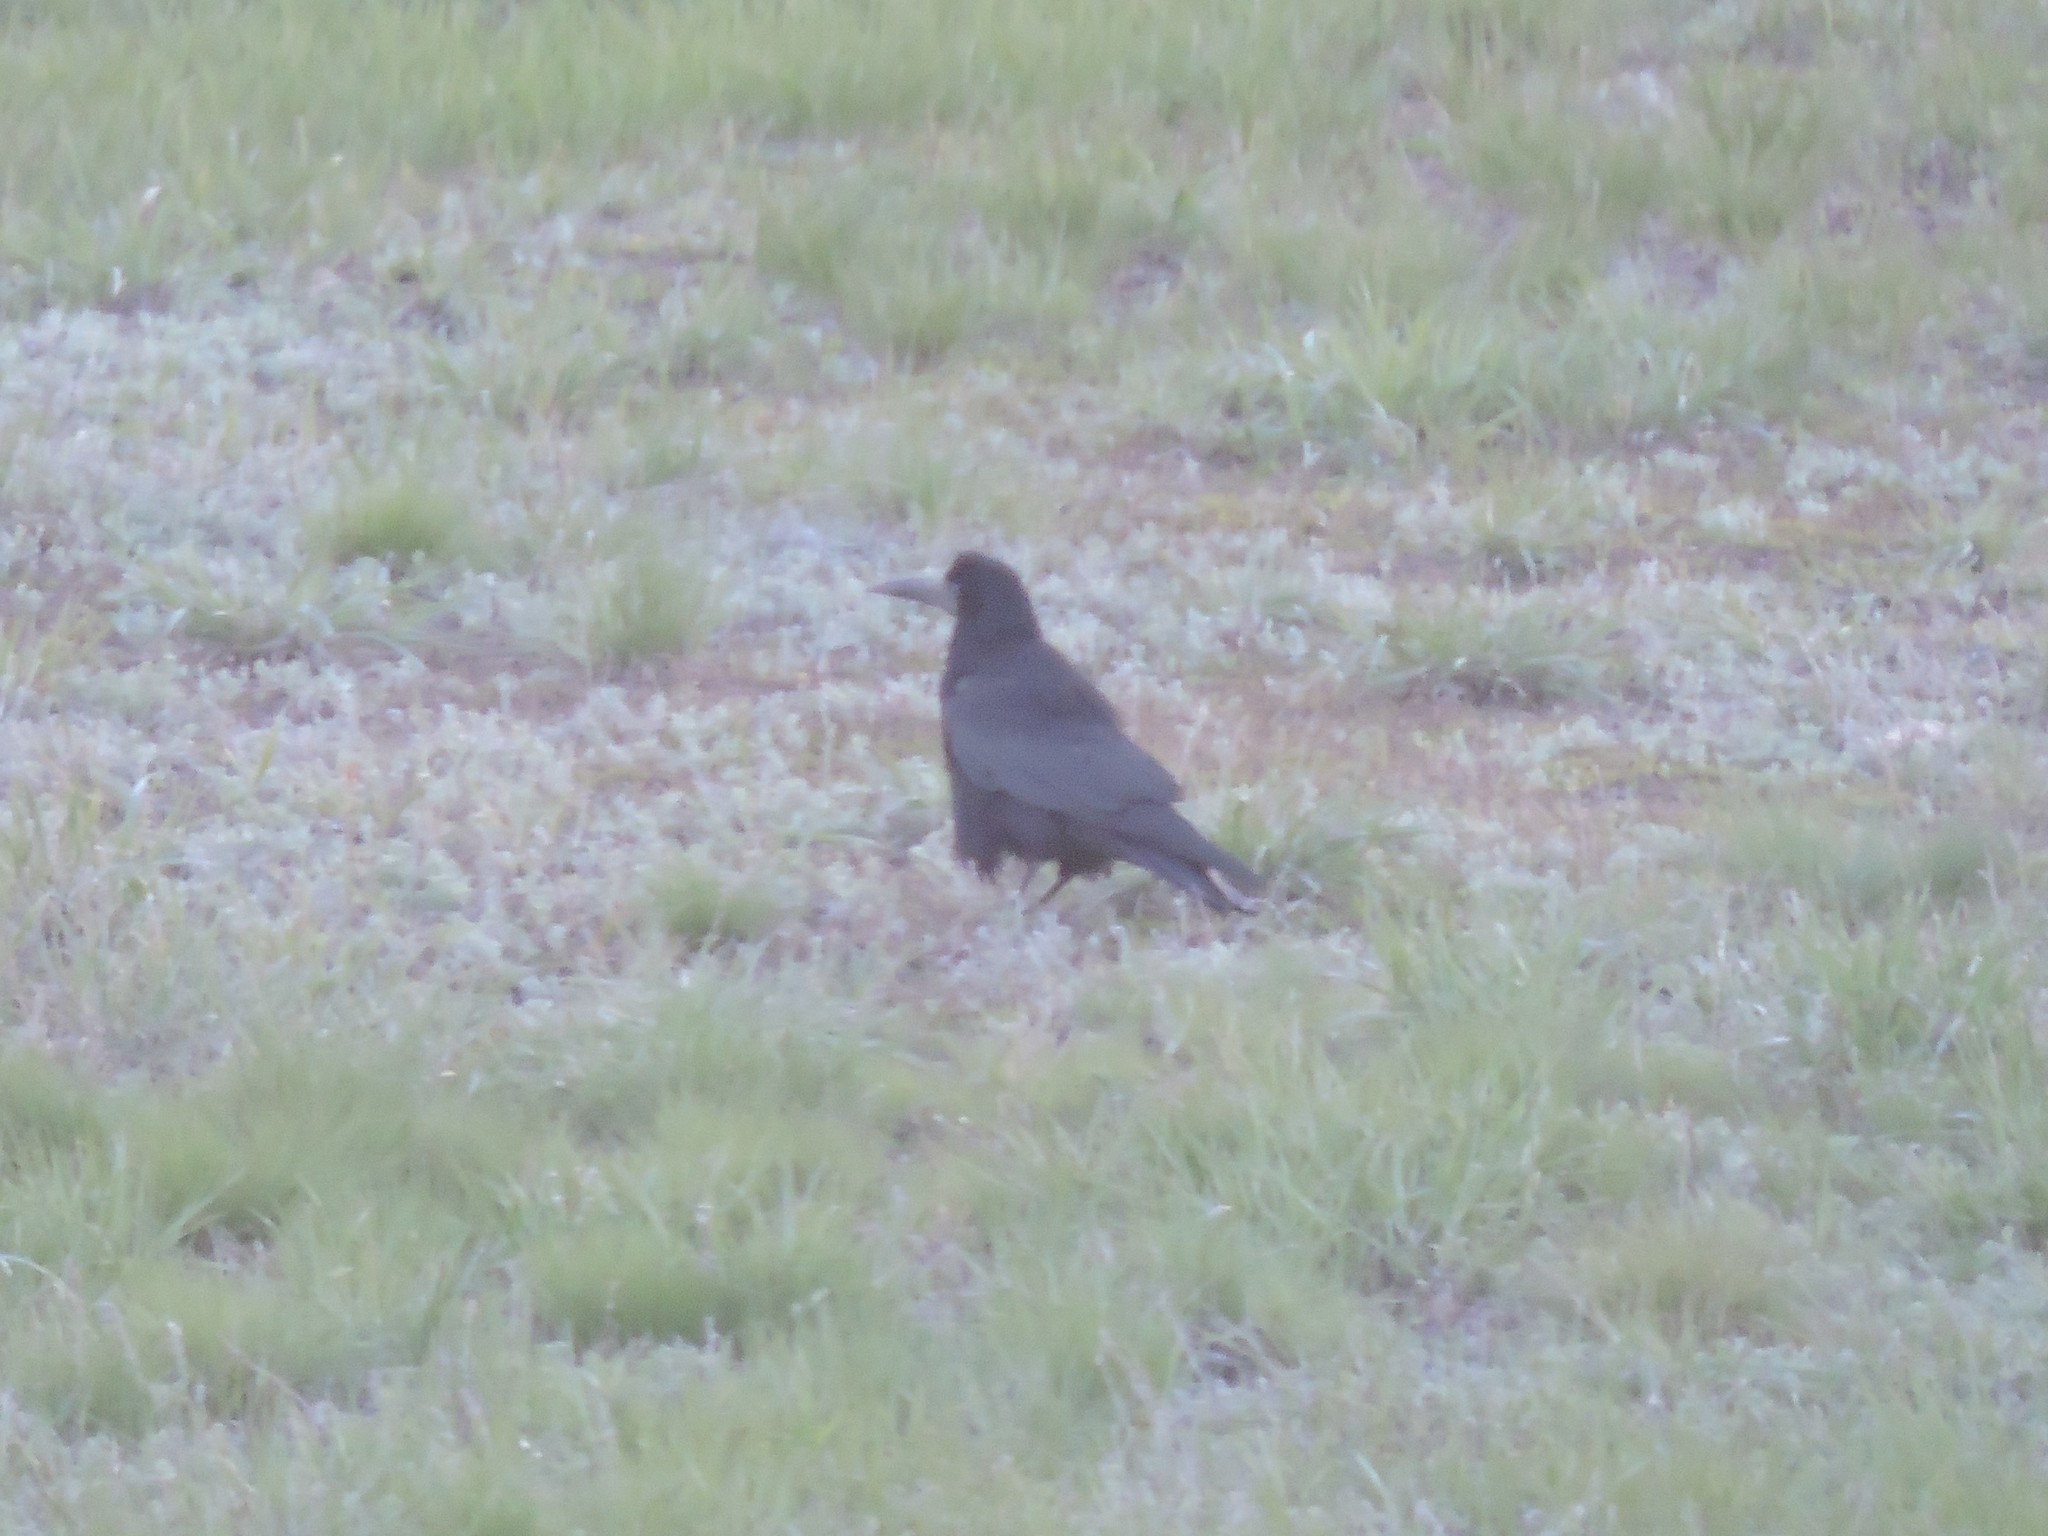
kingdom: Animalia
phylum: Chordata
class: Aves
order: Passeriformes
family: Corvidae
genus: Corvus
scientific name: Corvus frugilegus
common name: Rook
